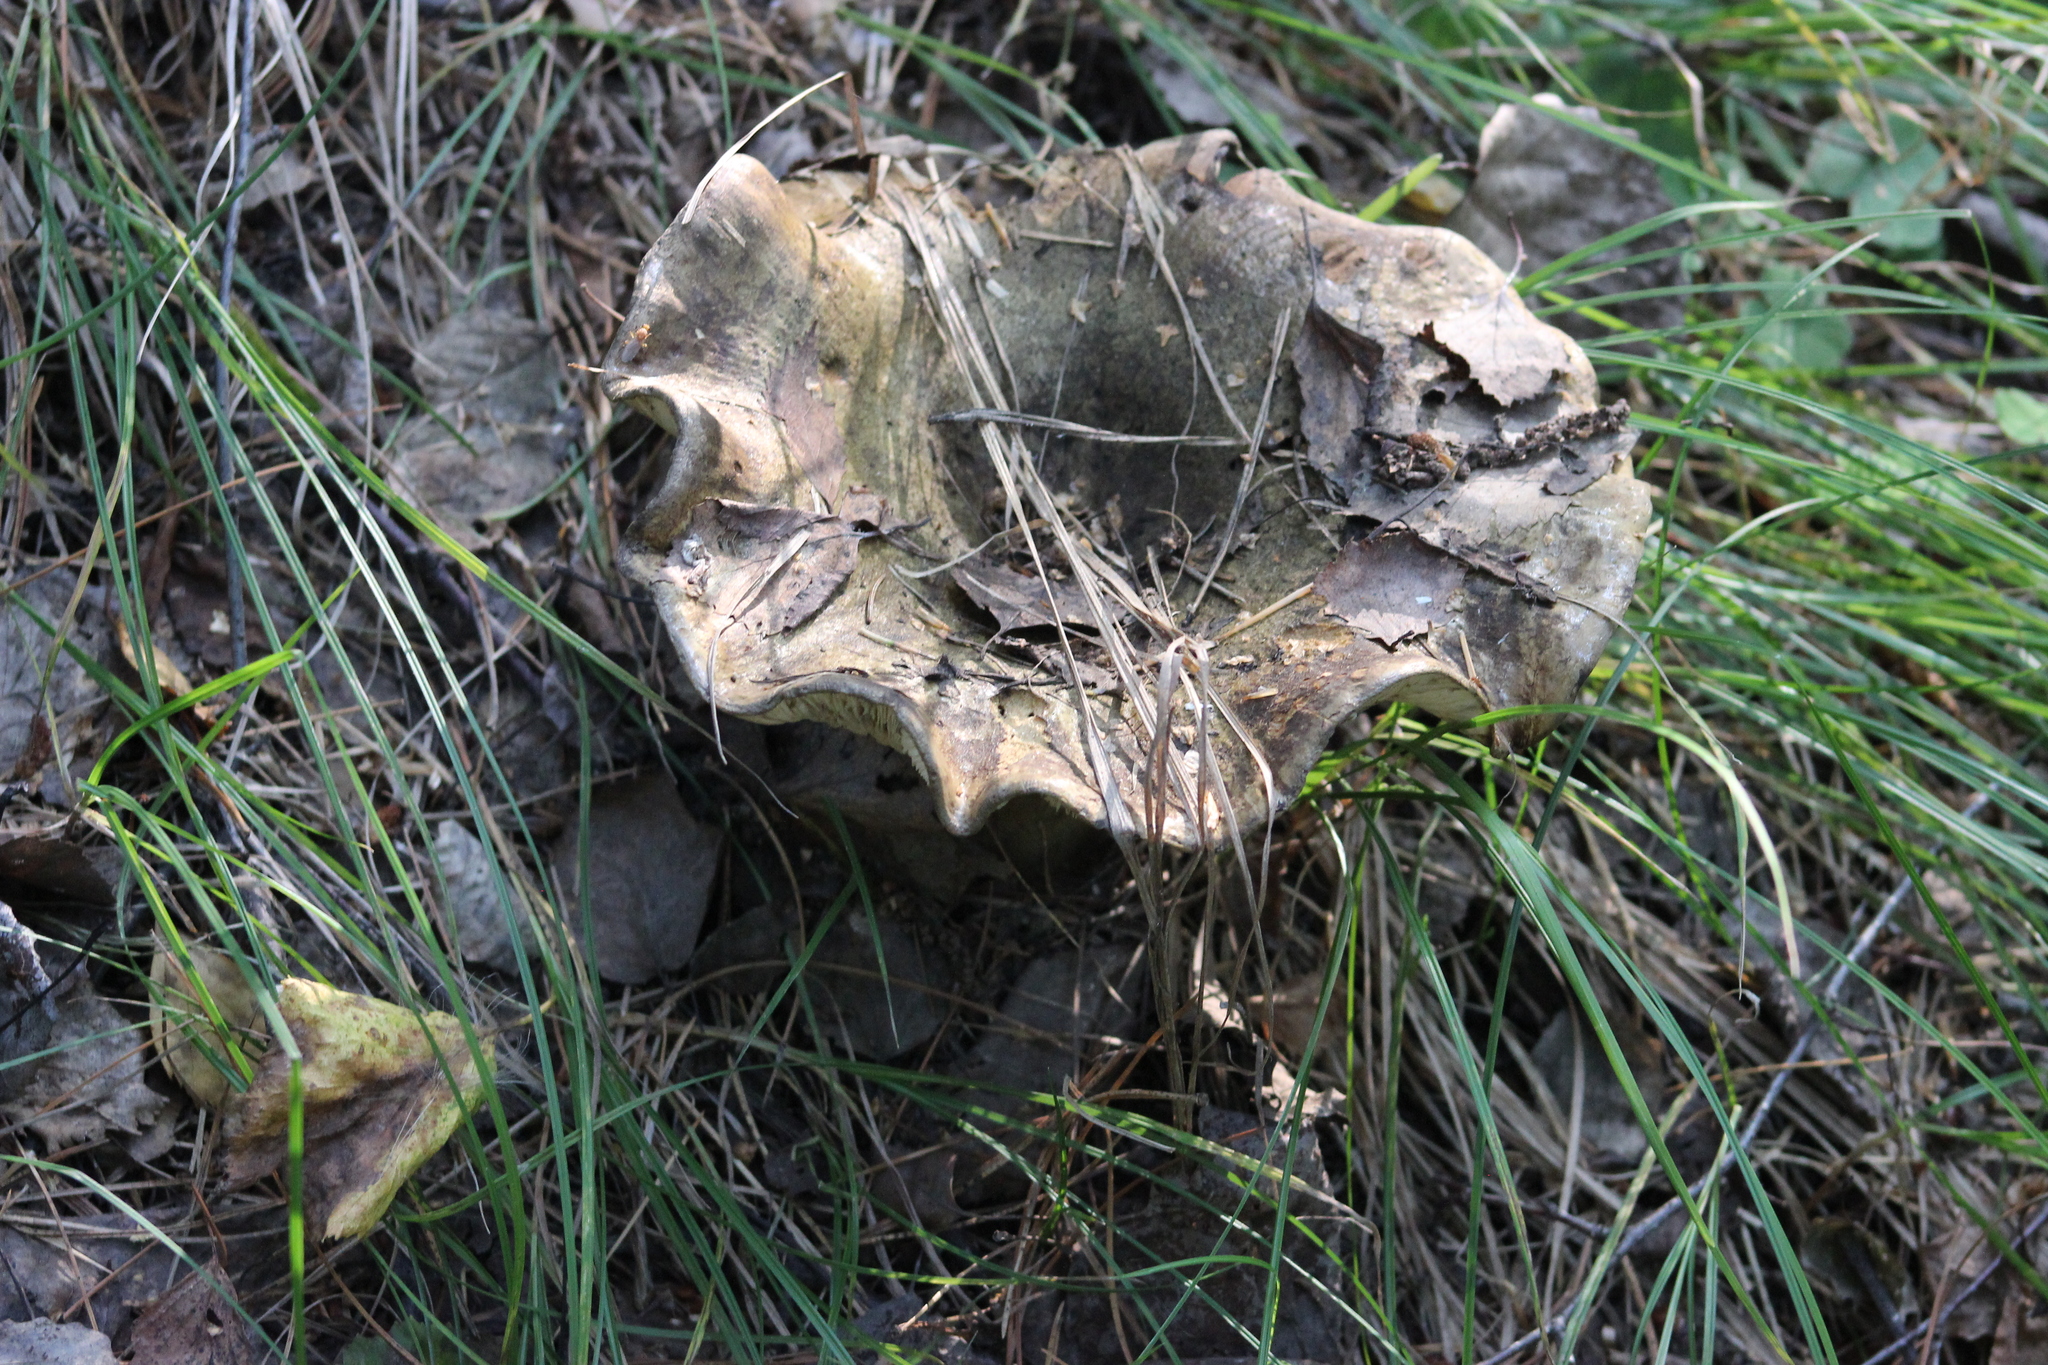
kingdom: Fungi
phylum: Basidiomycota
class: Agaricomycetes
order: Russulales
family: Russulaceae
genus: Russula
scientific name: Russula adusta
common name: Winecork brittlegill
